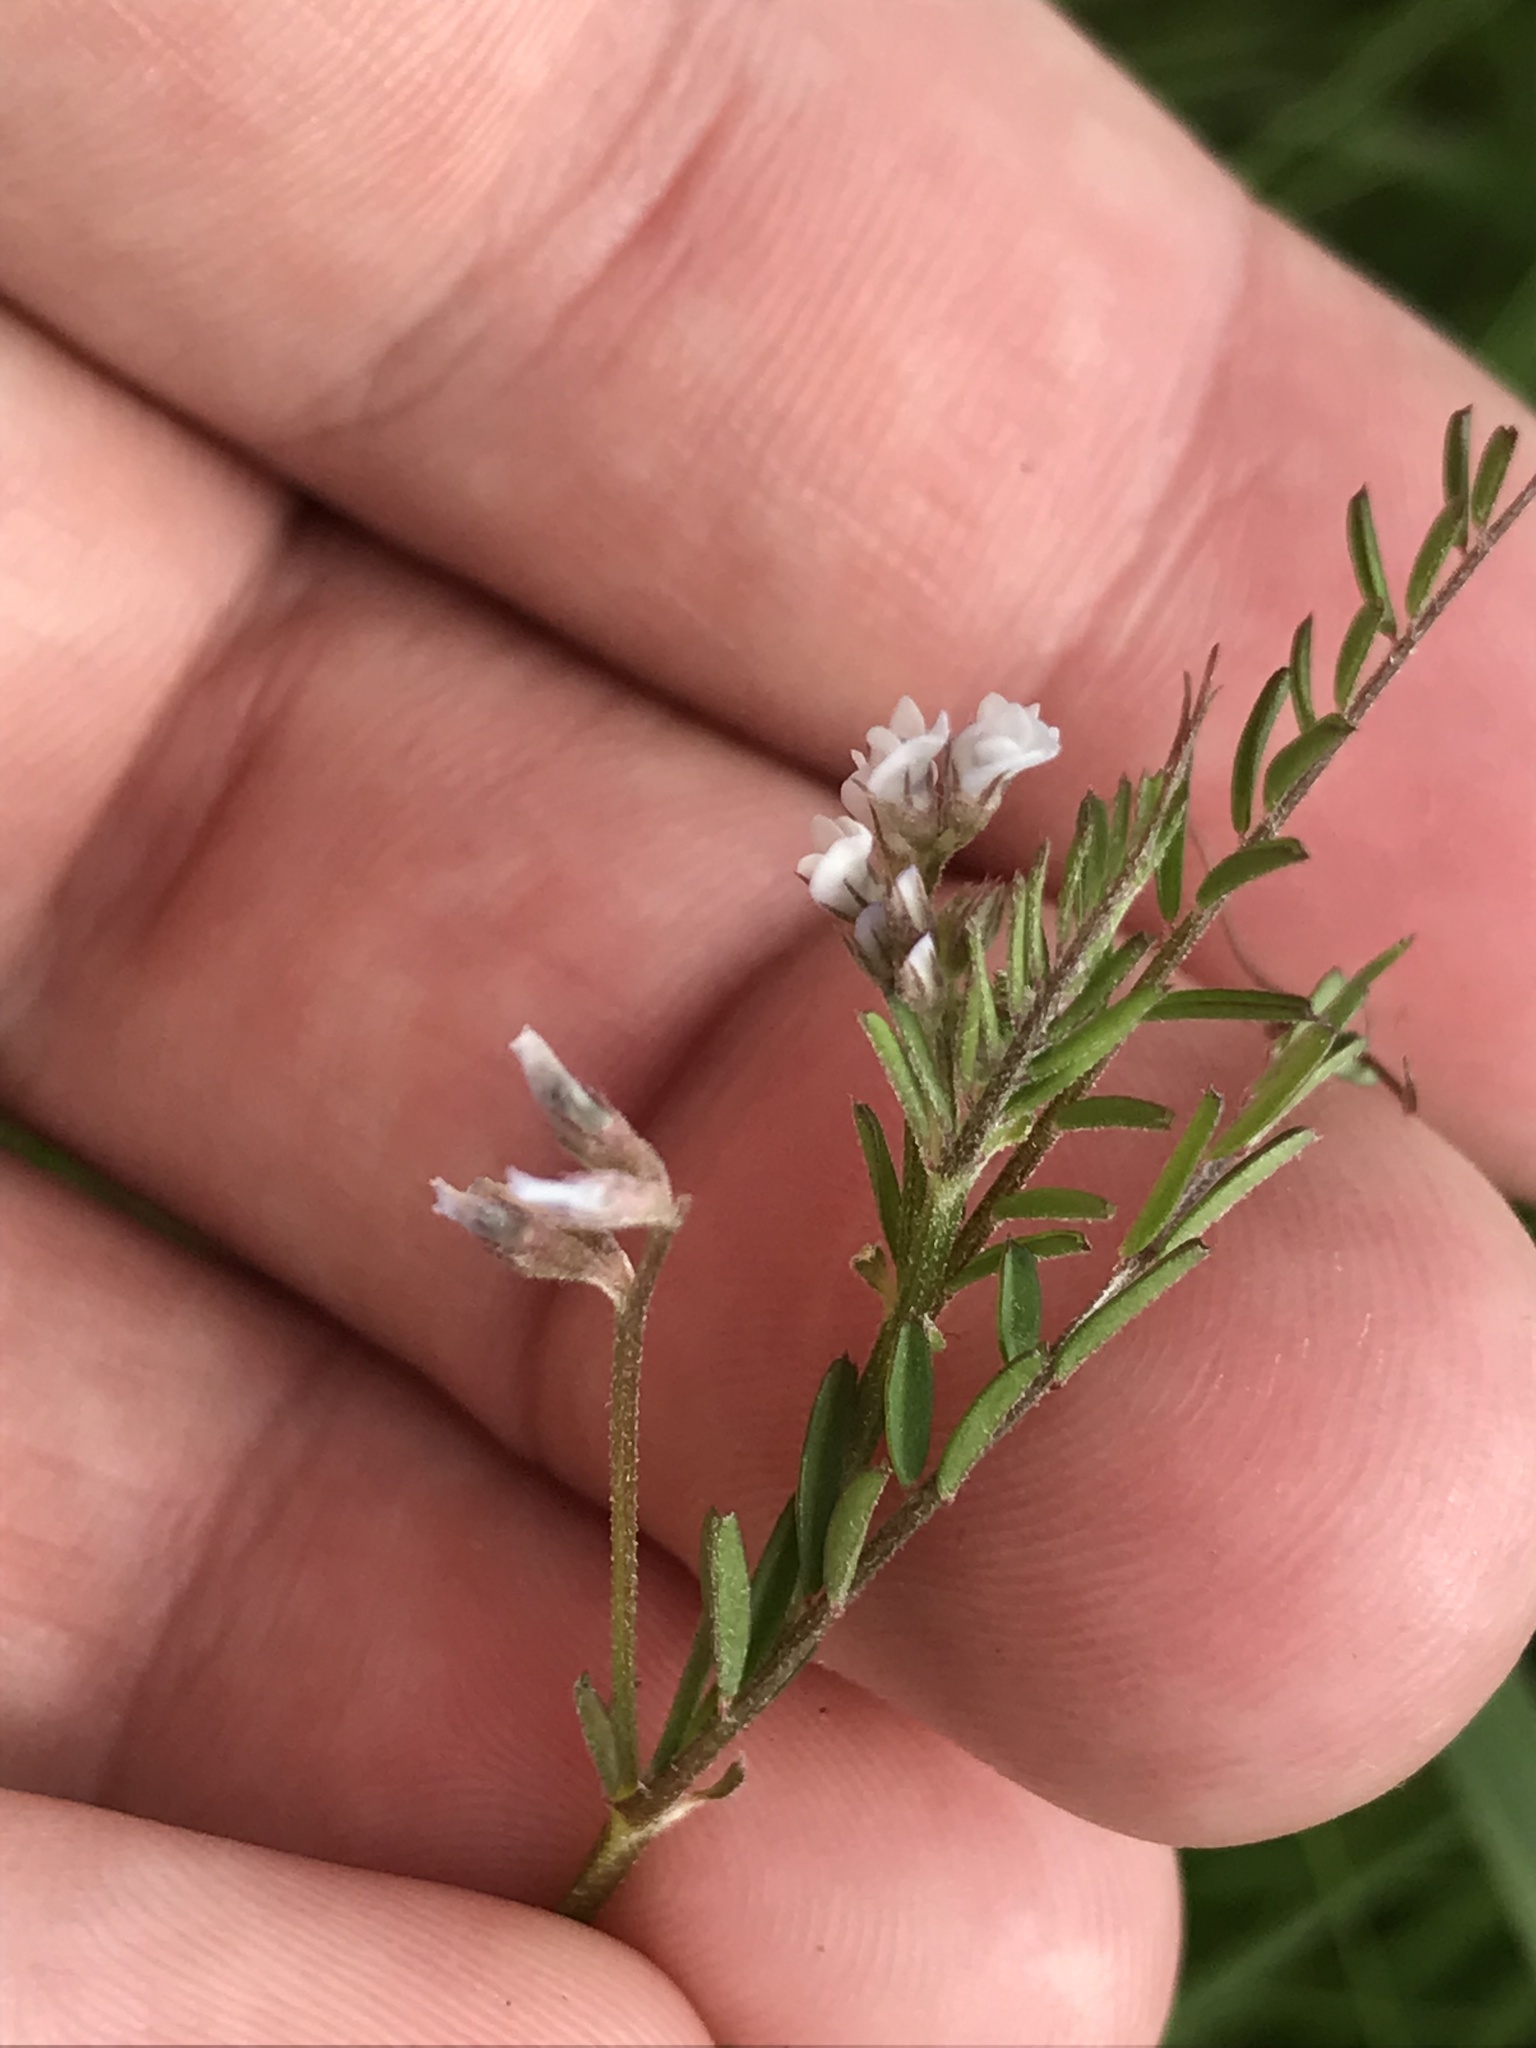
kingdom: Plantae
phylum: Tracheophyta
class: Magnoliopsida
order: Fabales
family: Fabaceae
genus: Vicia
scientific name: Vicia hirsuta
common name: Tiny vetch
